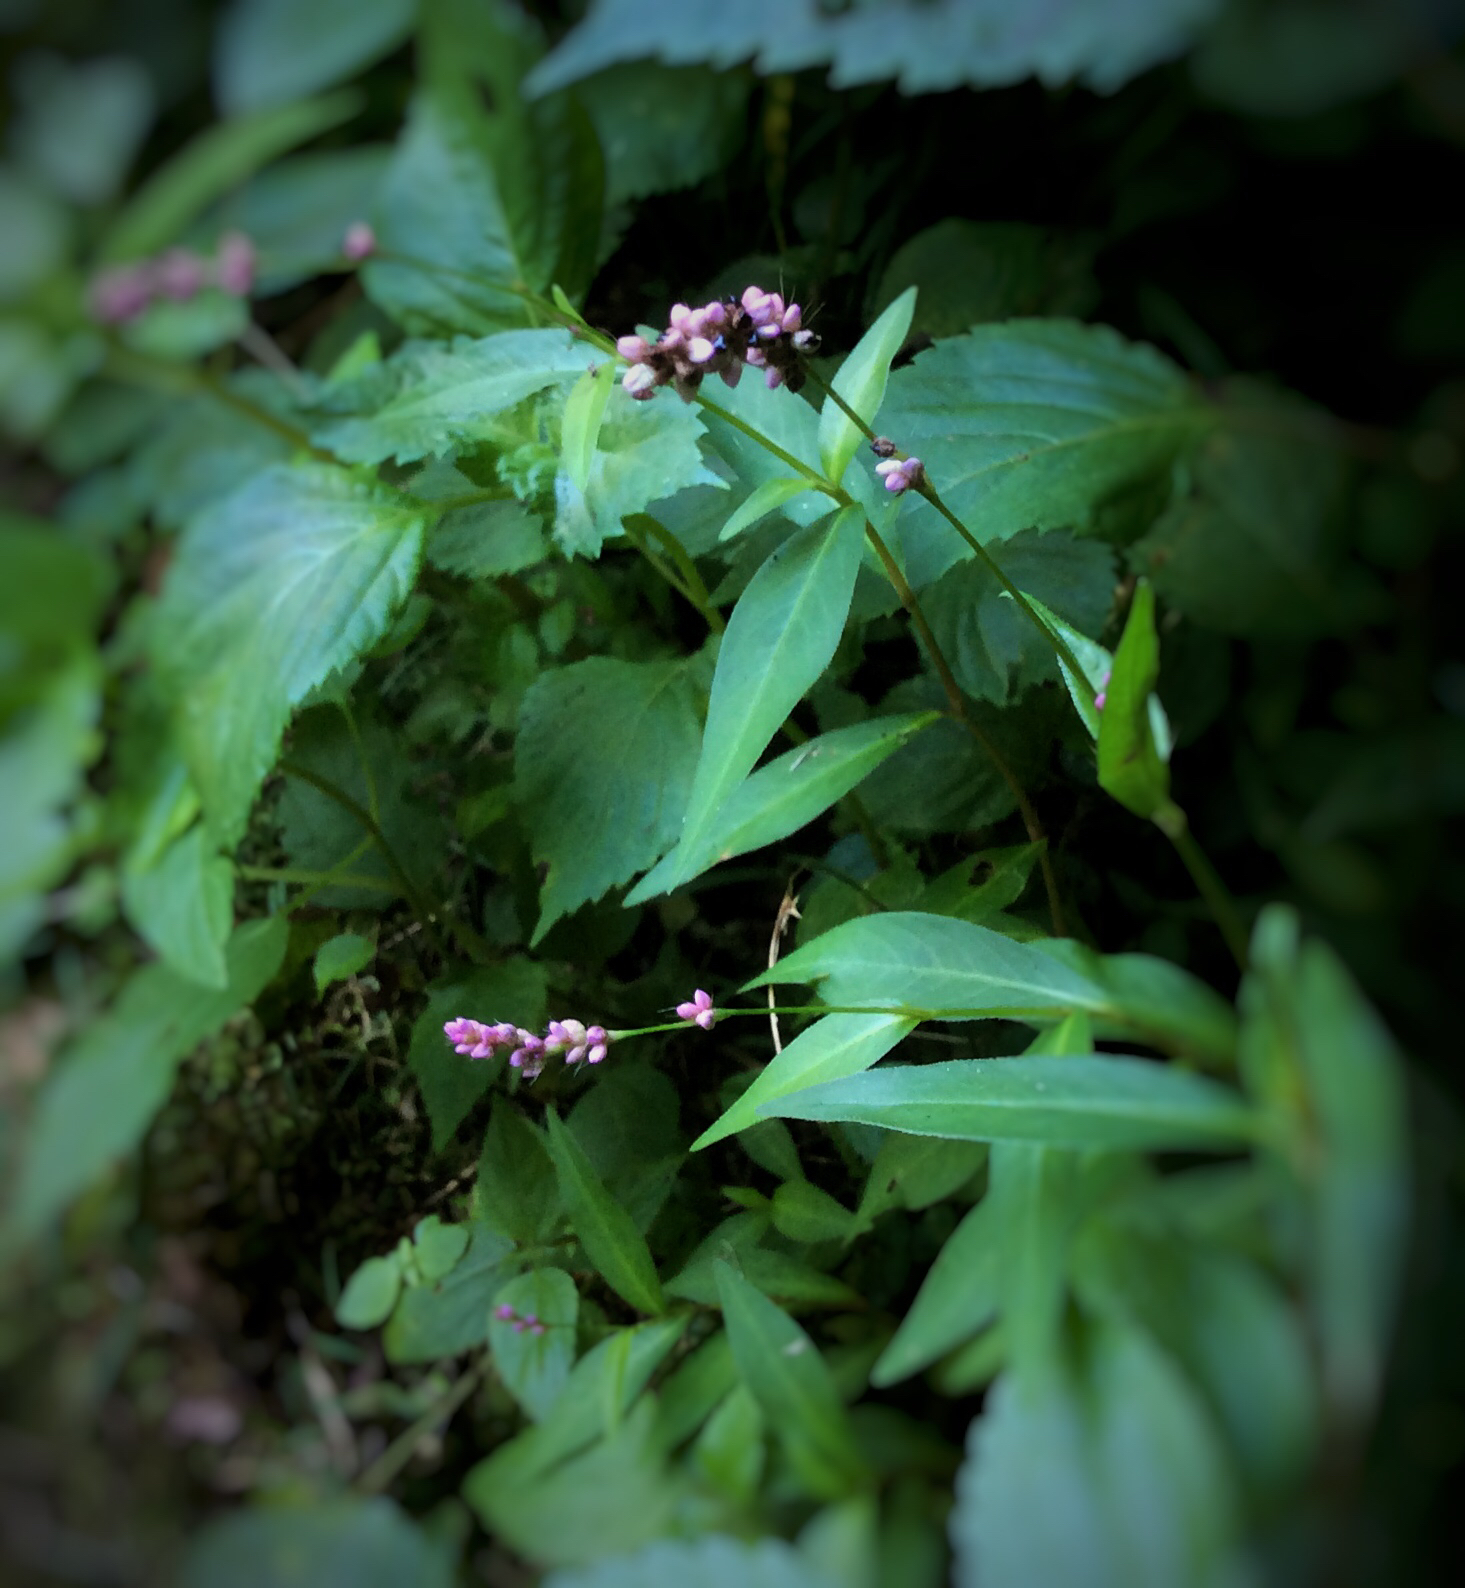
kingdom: Plantae
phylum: Tracheophyta
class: Magnoliopsida
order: Caryophyllales
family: Polygonaceae
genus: Persicaria
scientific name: Persicaria longiseta
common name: Bristly lady's-thumb
